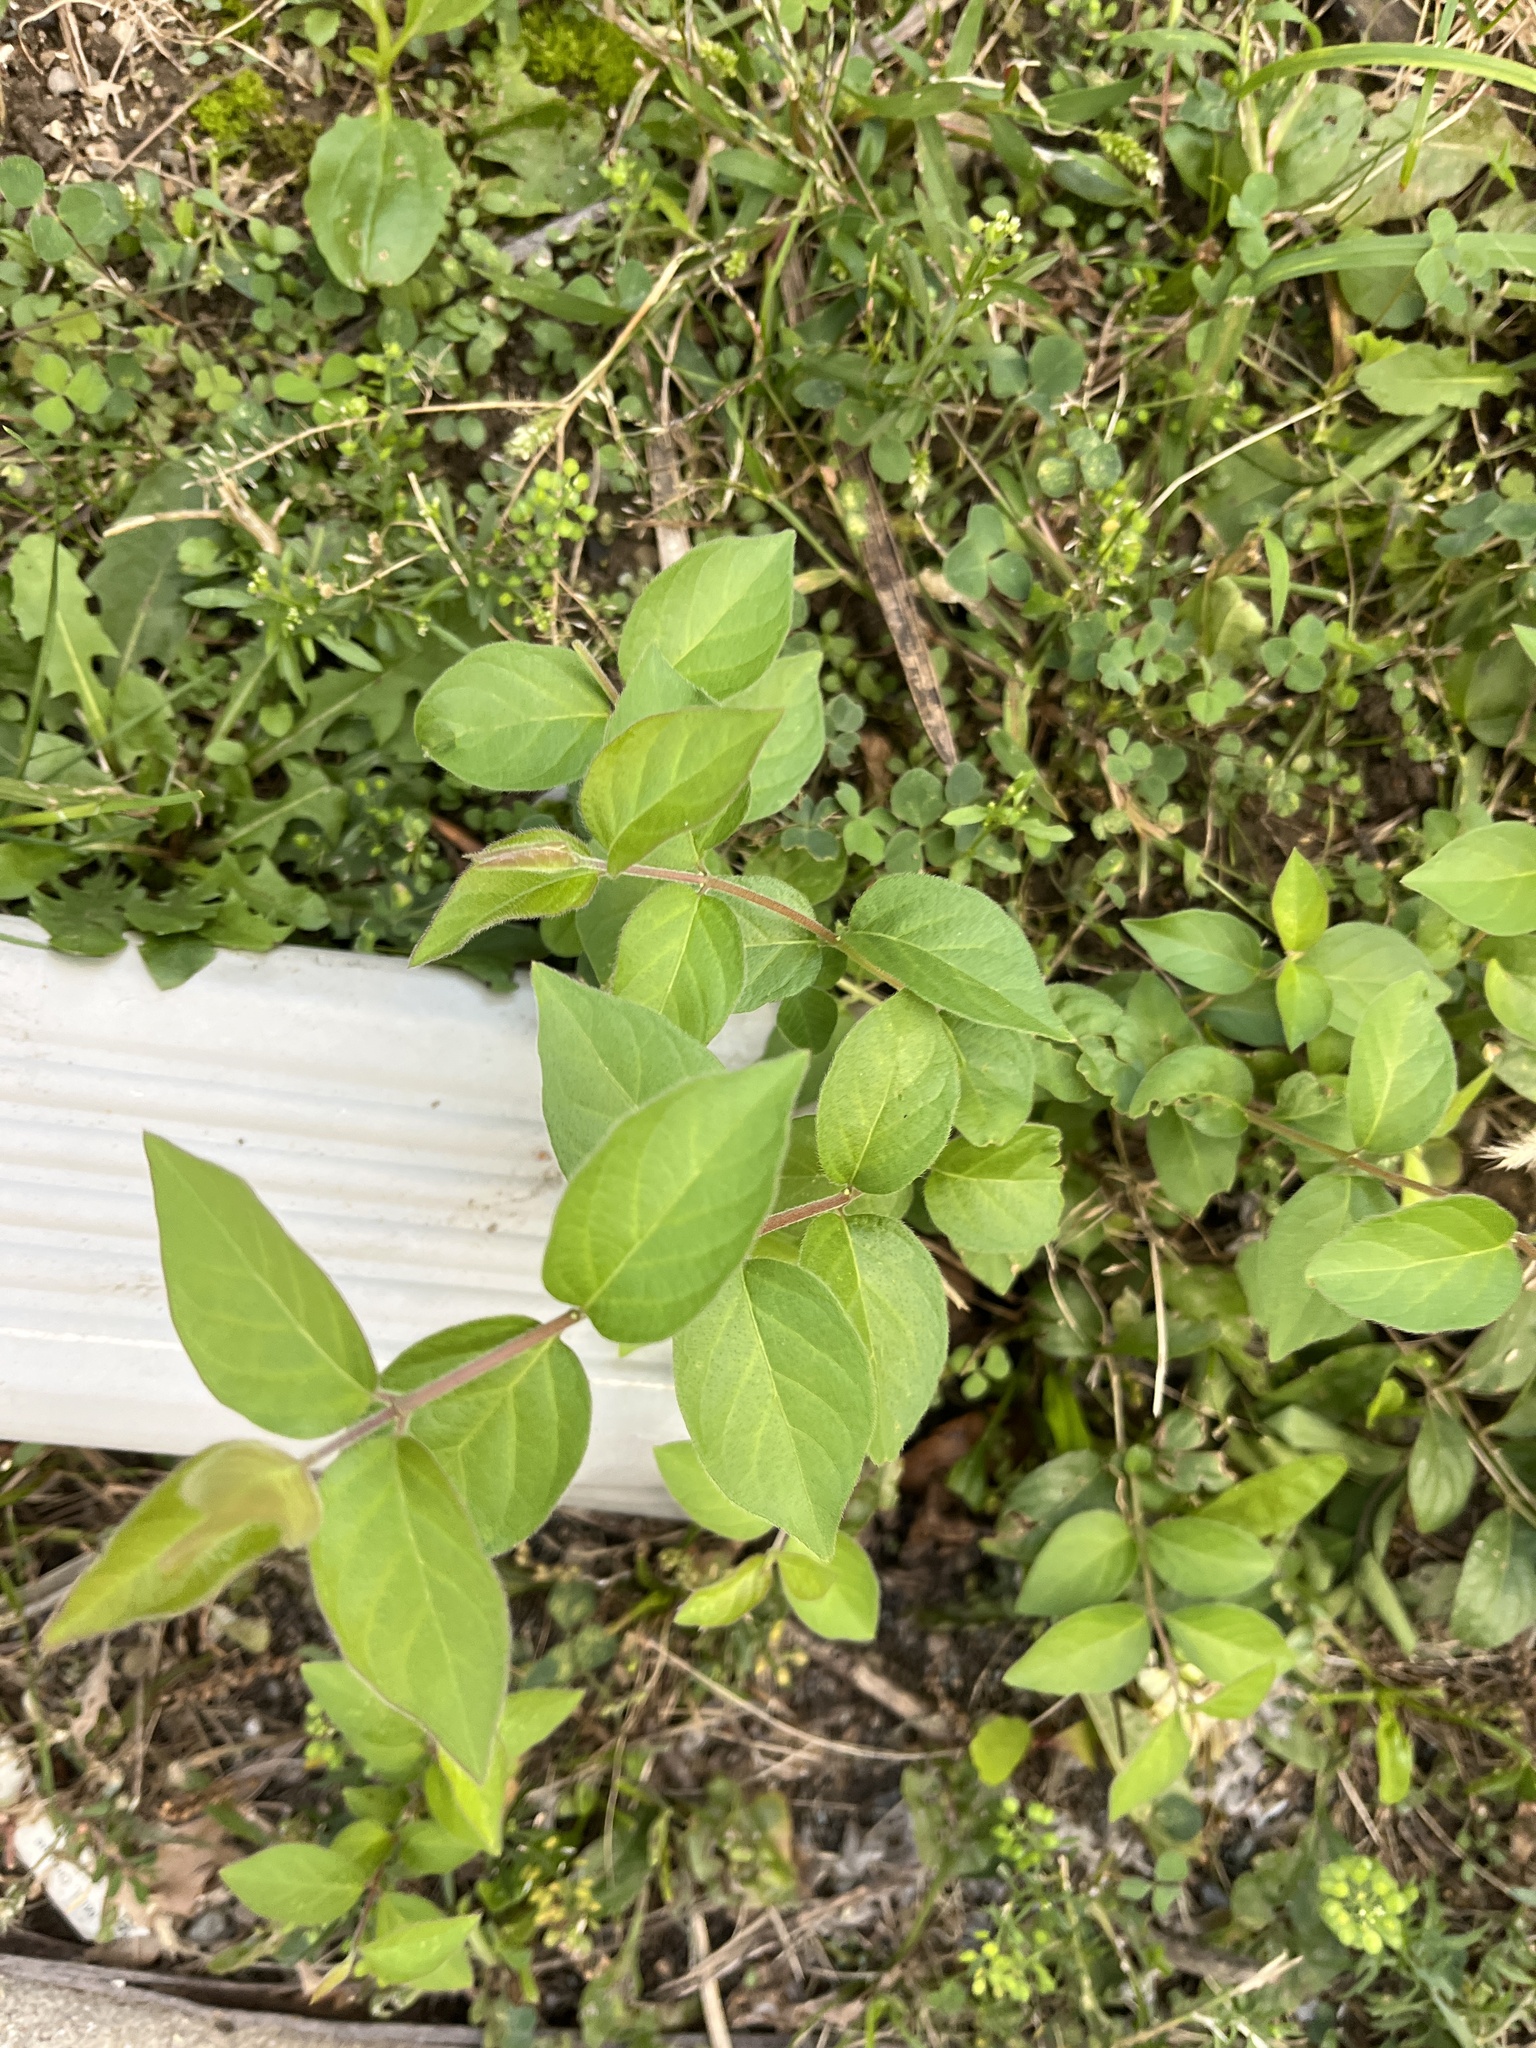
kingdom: Plantae
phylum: Tracheophyta
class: Magnoliopsida
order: Dipsacales
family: Caprifoliaceae
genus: Lonicera
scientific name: Lonicera maackii
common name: Amur honeysuckle
